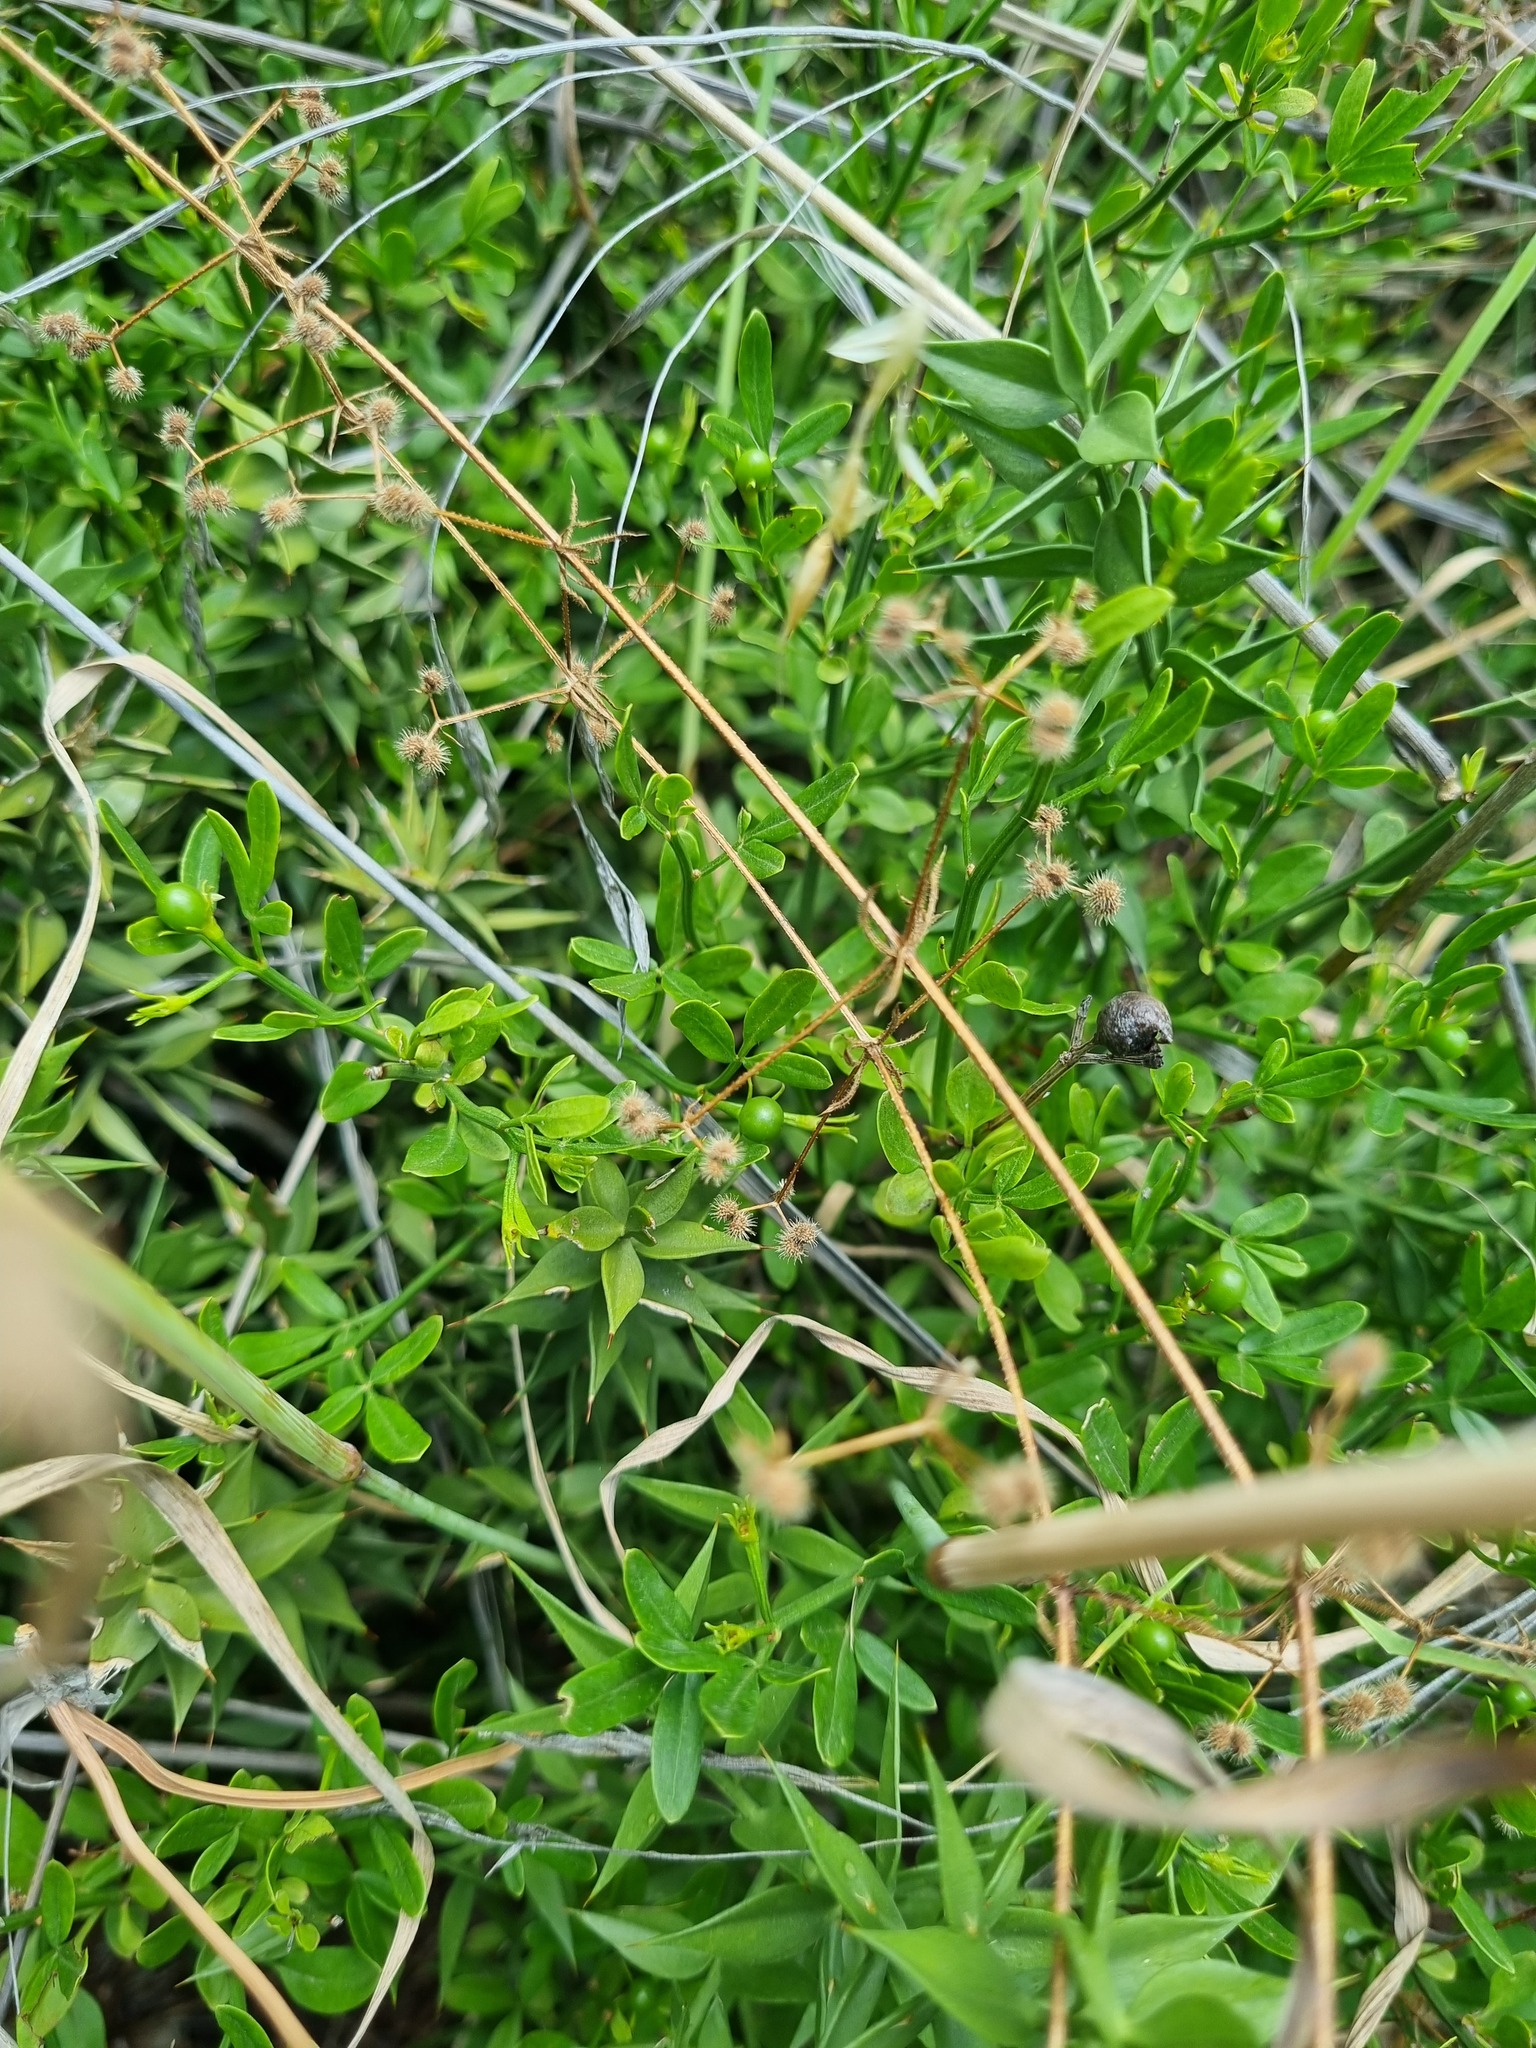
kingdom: Plantae
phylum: Tracheophyta
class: Magnoliopsida
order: Lamiales
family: Oleaceae
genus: Chrysojasminum
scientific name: Chrysojasminum fruticans
